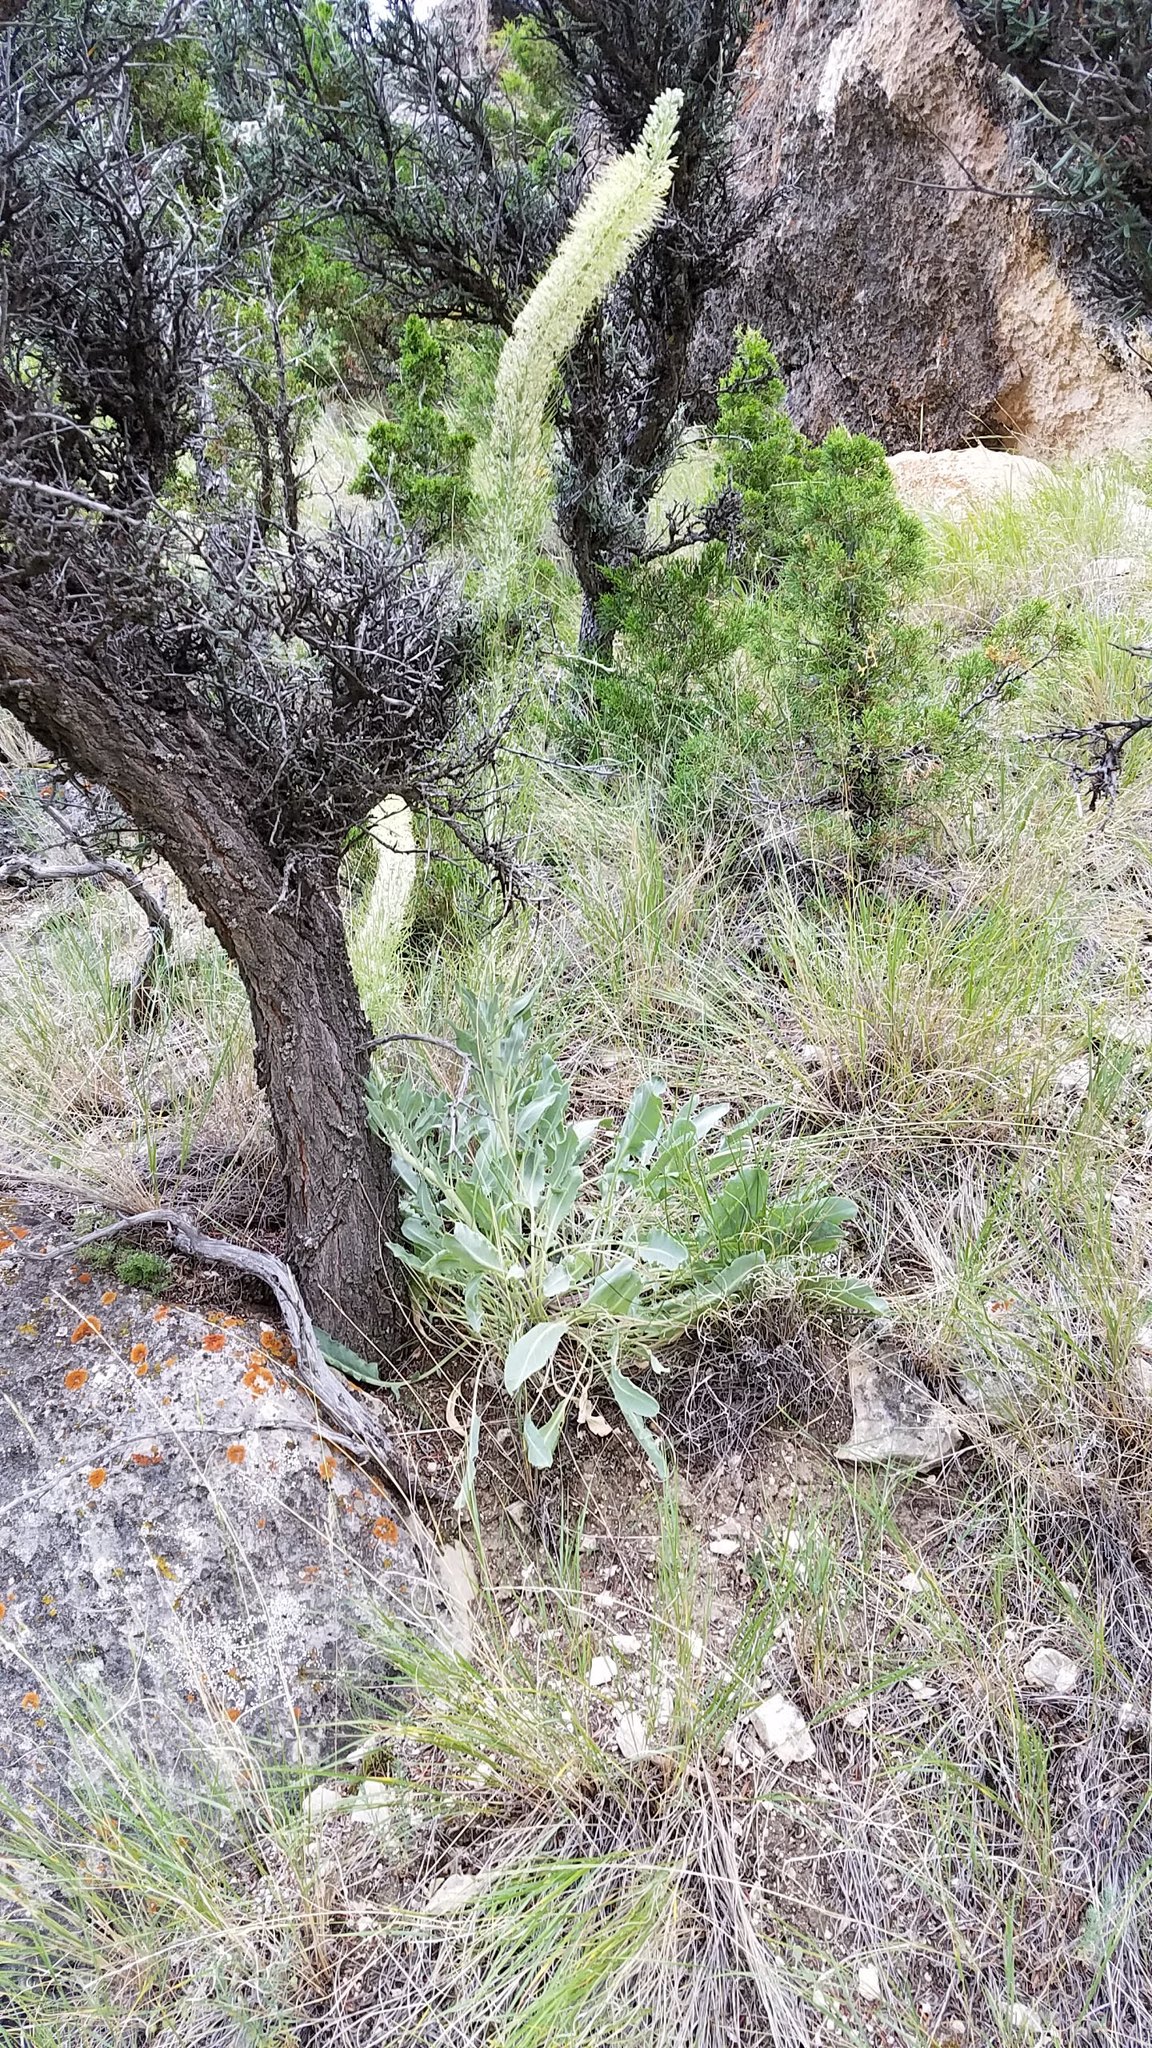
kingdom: Plantae
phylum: Tracheophyta
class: Magnoliopsida
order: Brassicales
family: Brassicaceae
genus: Stanleya
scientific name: Stanleya tomentosa
